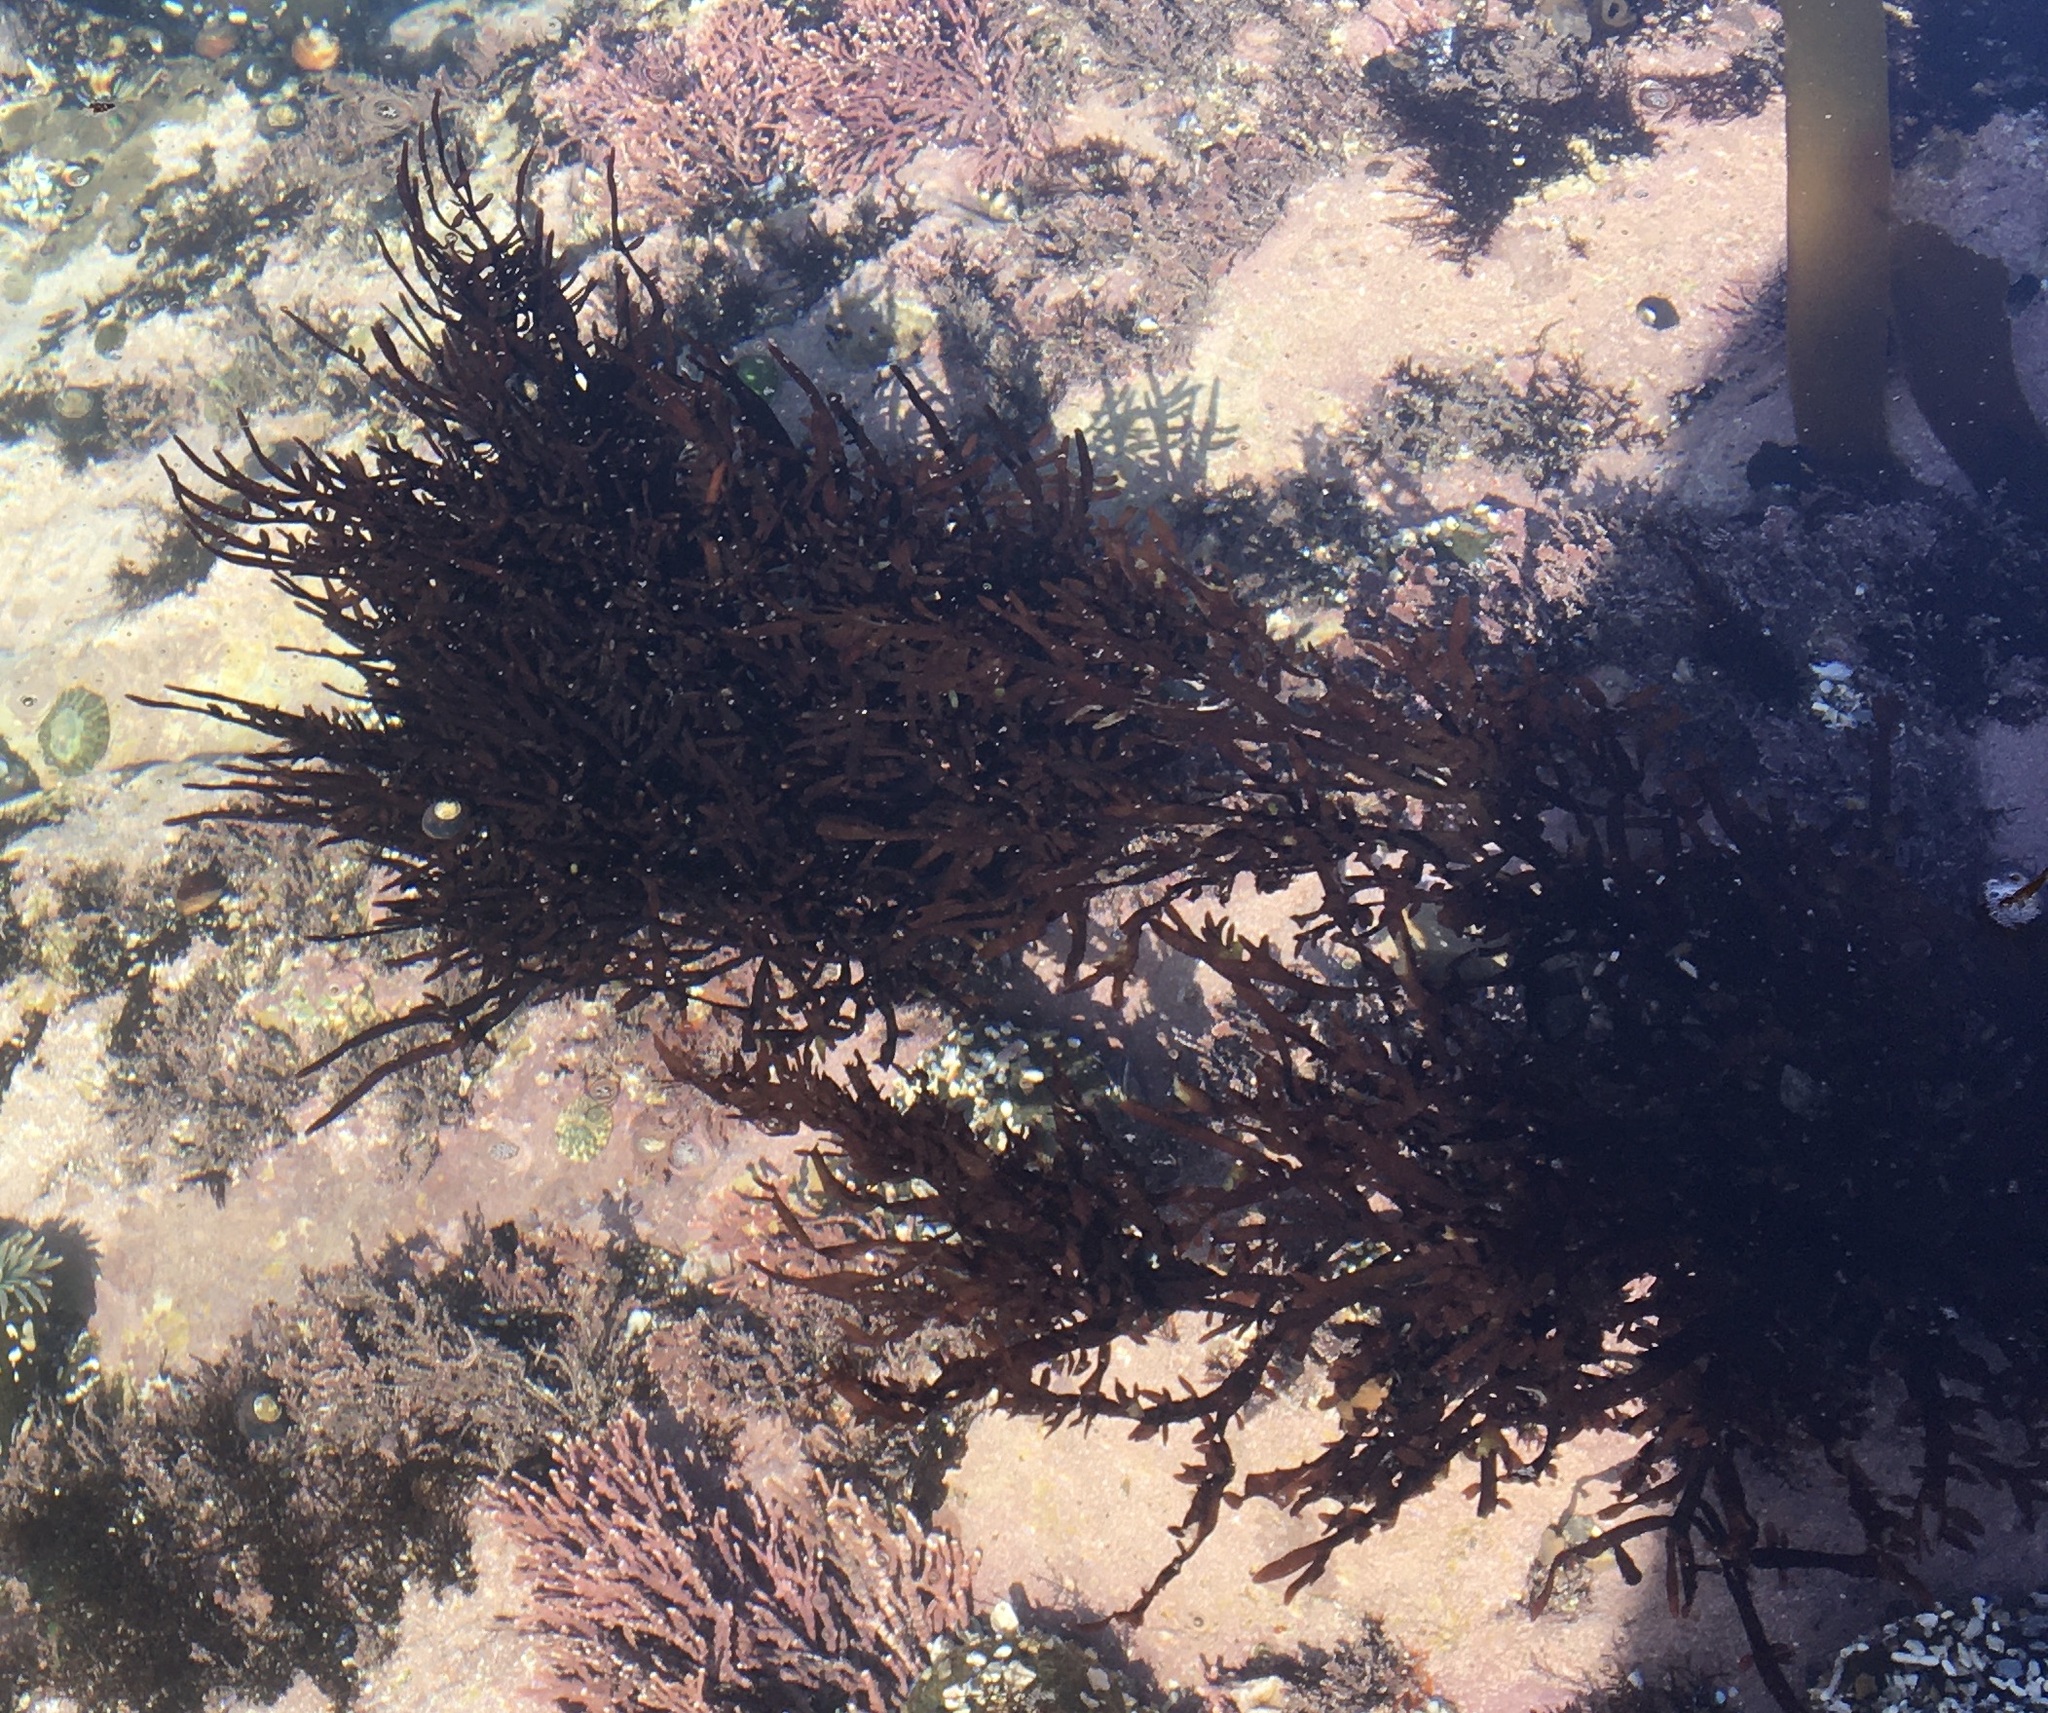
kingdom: Plantae
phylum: Rhodophyta
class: Florideophyceae
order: Halymeniales
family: Halymeniaceae
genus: Grateloupia
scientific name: Grateloupia Prionitis lanceolata
